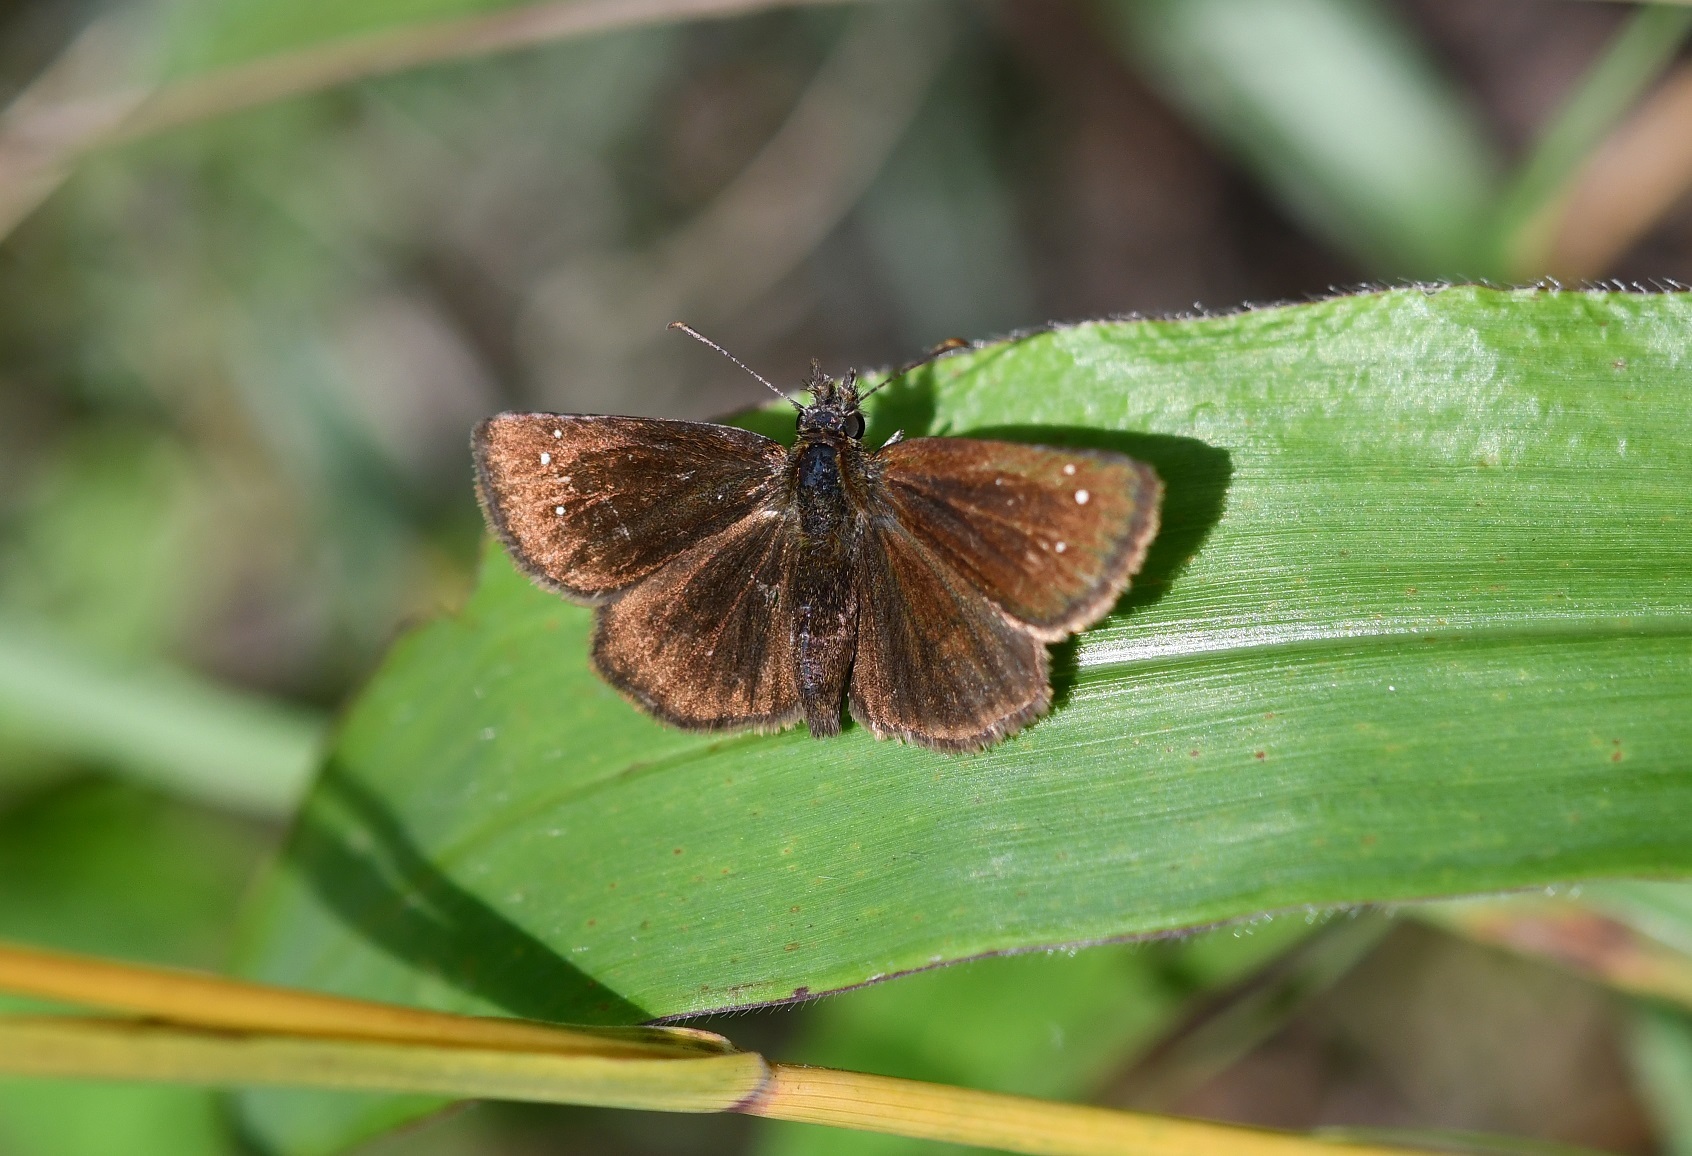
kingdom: Animalia
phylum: Arthropoda
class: Insecta
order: Lepidoptera
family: Hesperiidae
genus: Piruna
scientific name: Piruna brunnea
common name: Chocolate skipperling
